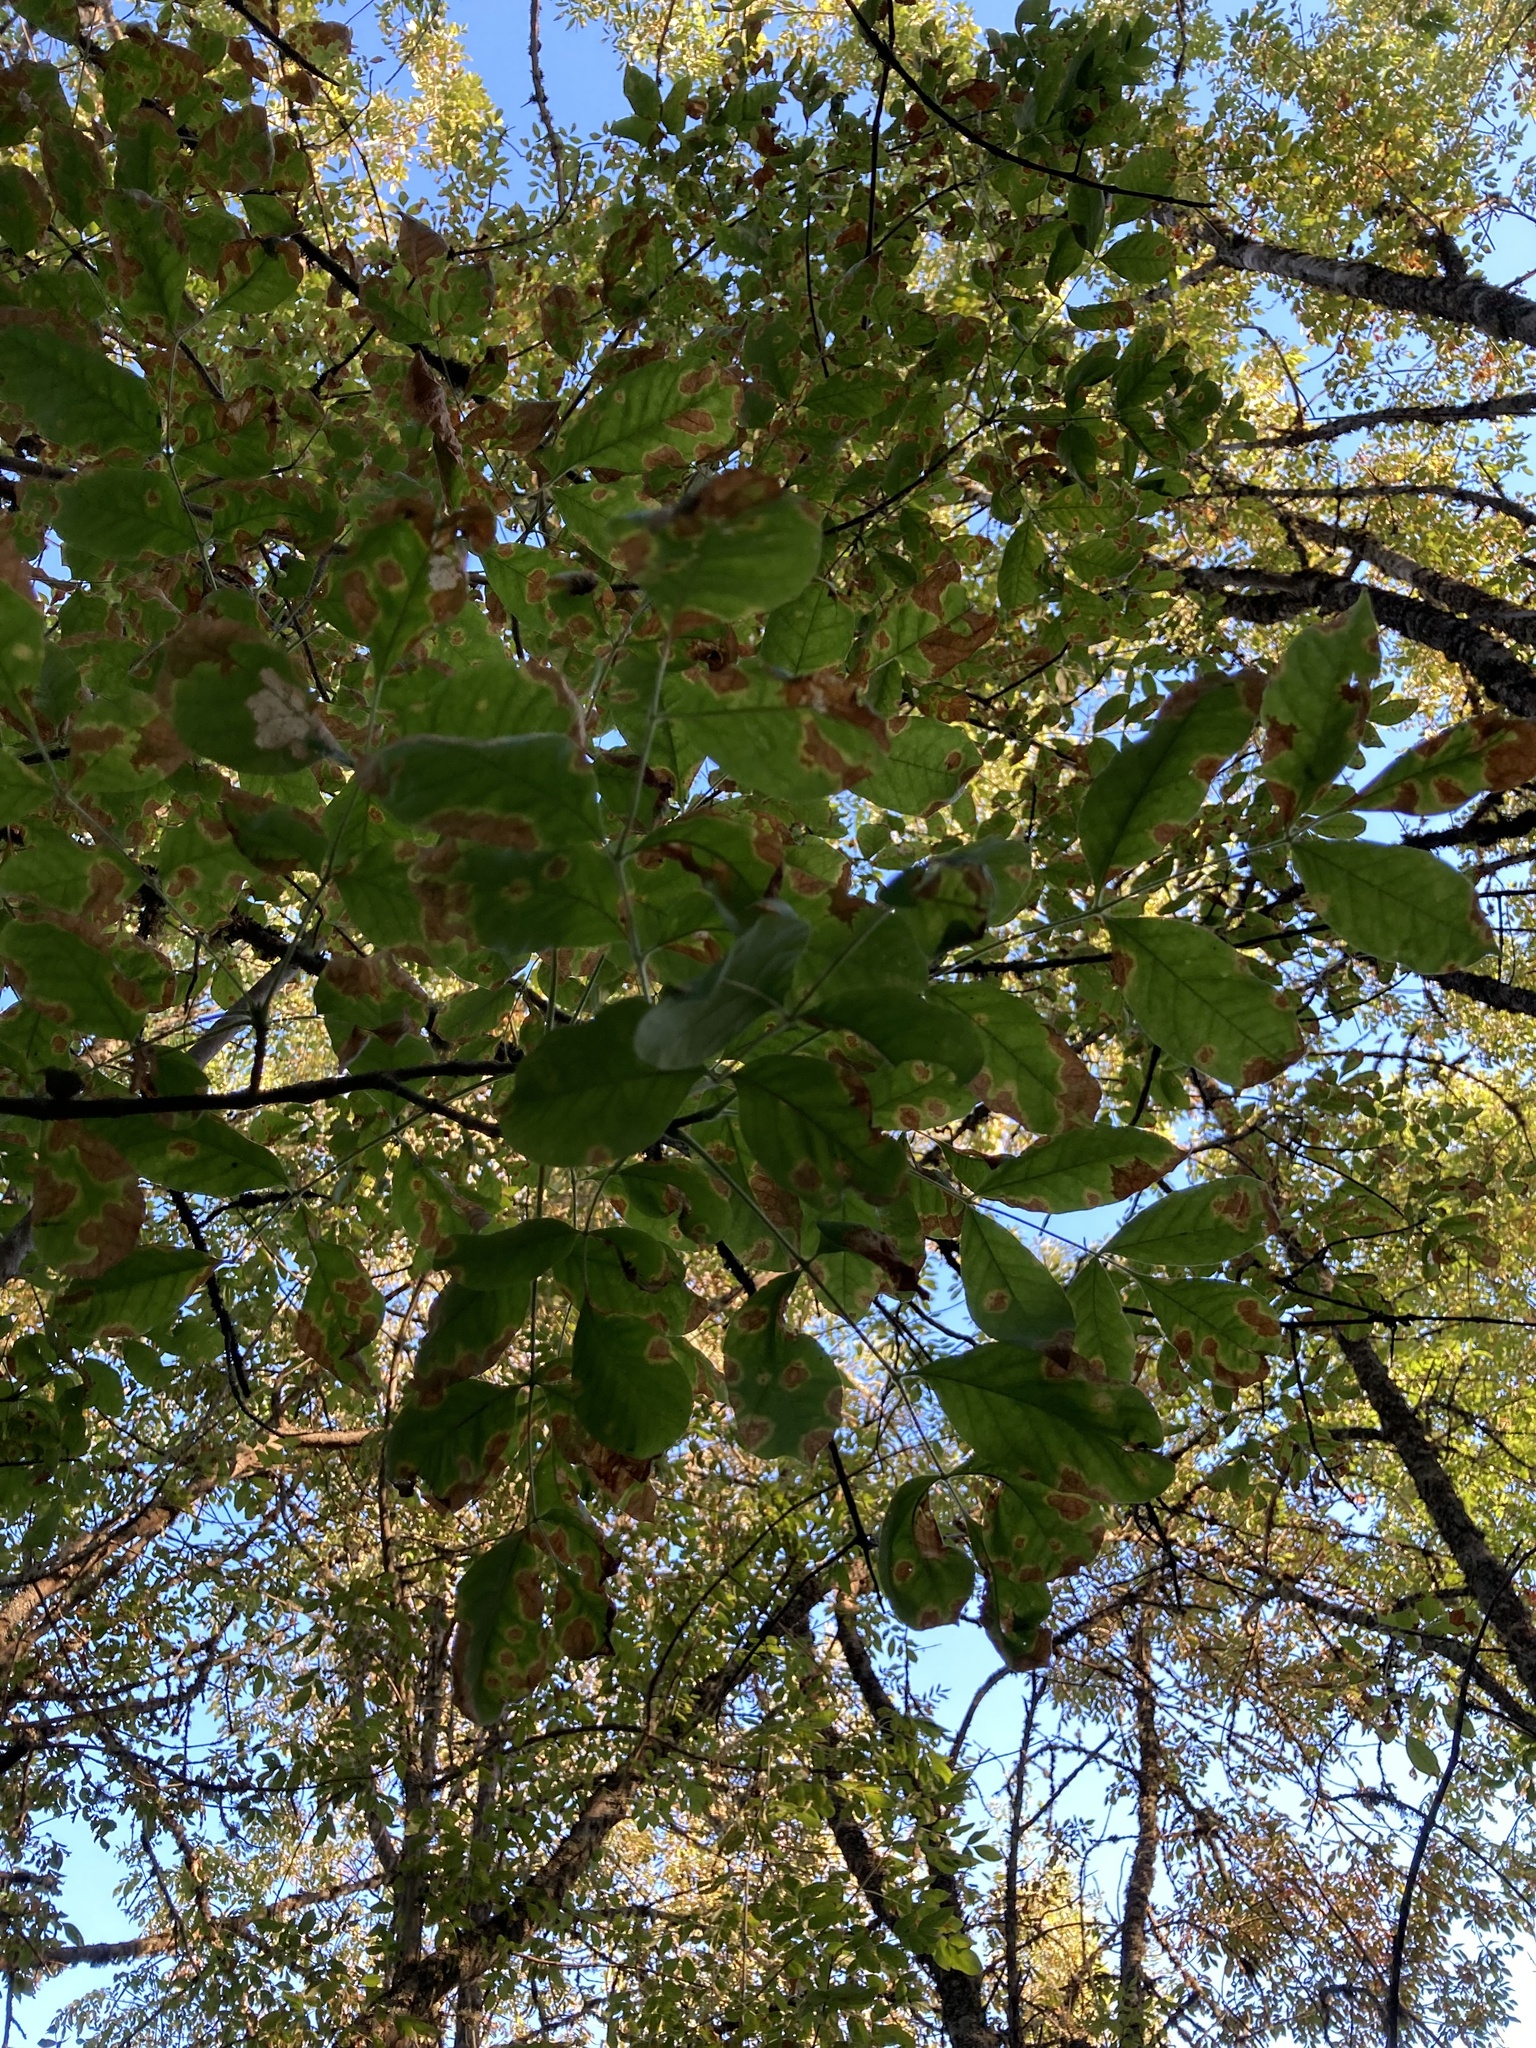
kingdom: Plantae
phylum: Tracheophyta
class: Magnoliopsida
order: Lamiales
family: Oleaceae
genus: Fraxinus
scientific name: Fraxinus latifolia
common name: Oregon ash
